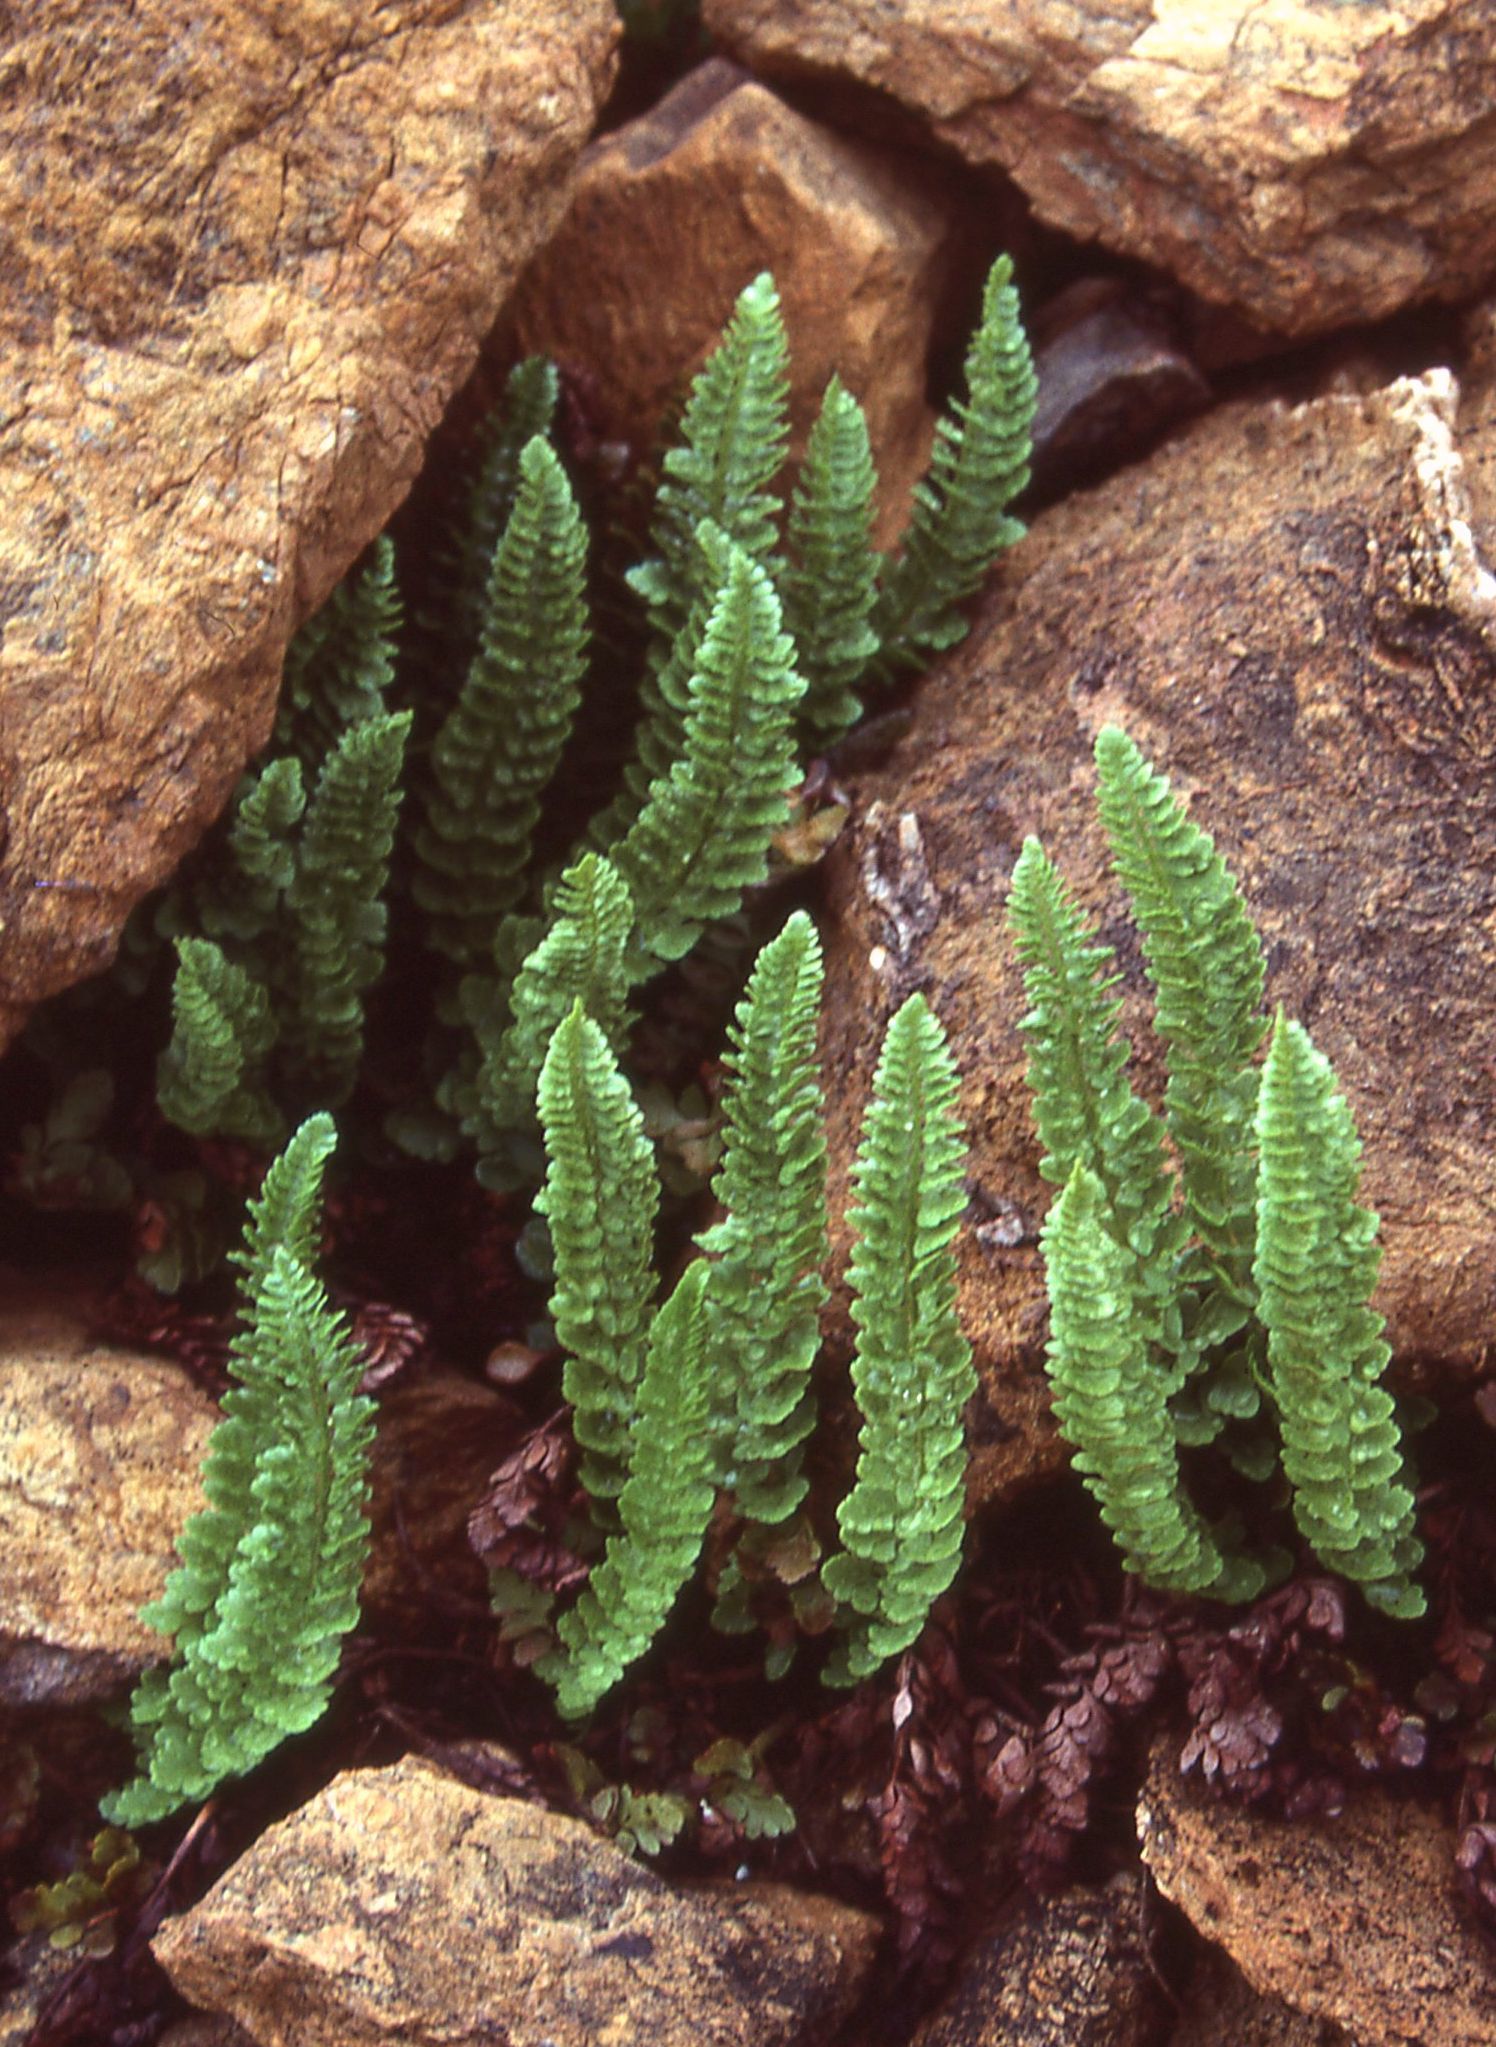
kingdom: Plantae
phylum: Tracheophyta
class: Polypodiopsida
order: Polypodiales
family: Dryopteridaceae
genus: Polystichum
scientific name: Polystichum lemmonii
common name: Lemmon's holly fern
